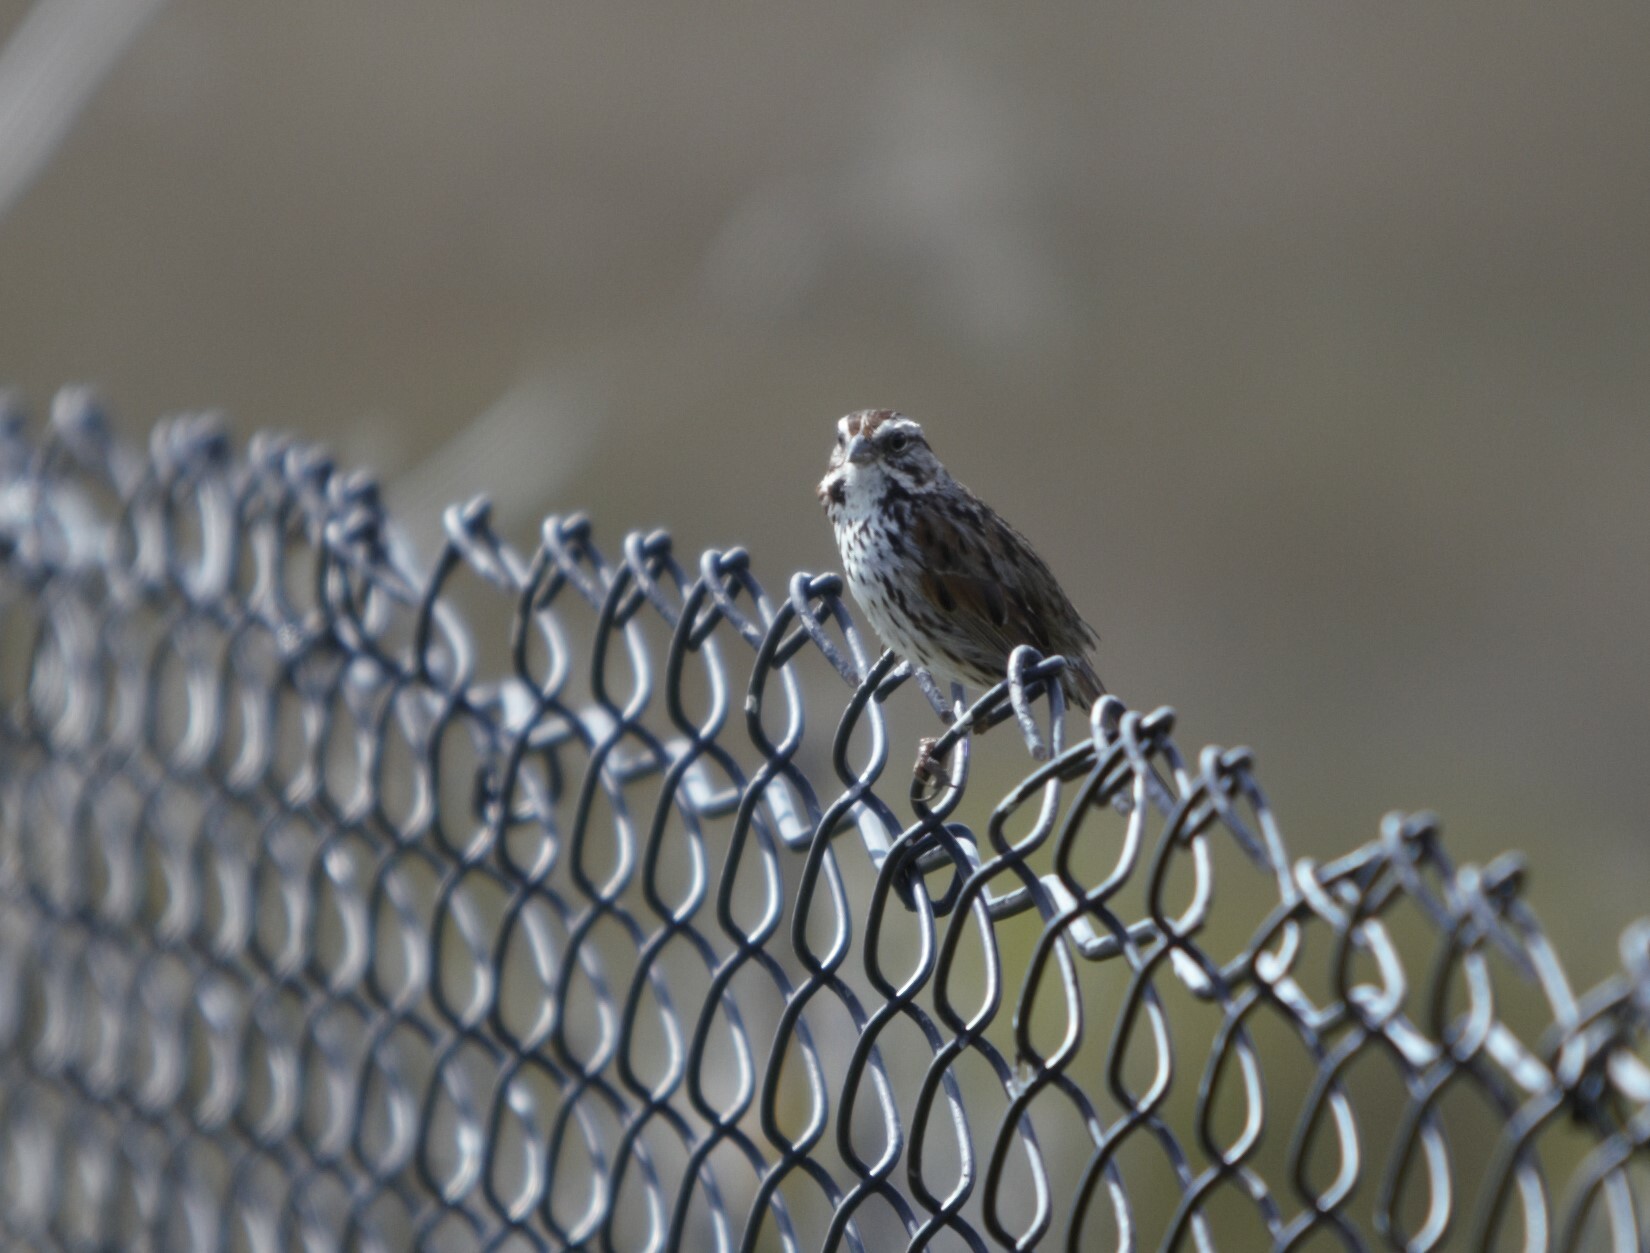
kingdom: Animalia
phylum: Chordata
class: Aves
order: Passeriformes
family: Passerellidae
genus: Melospiza
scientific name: Melospiza melodia
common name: Song sparrow
